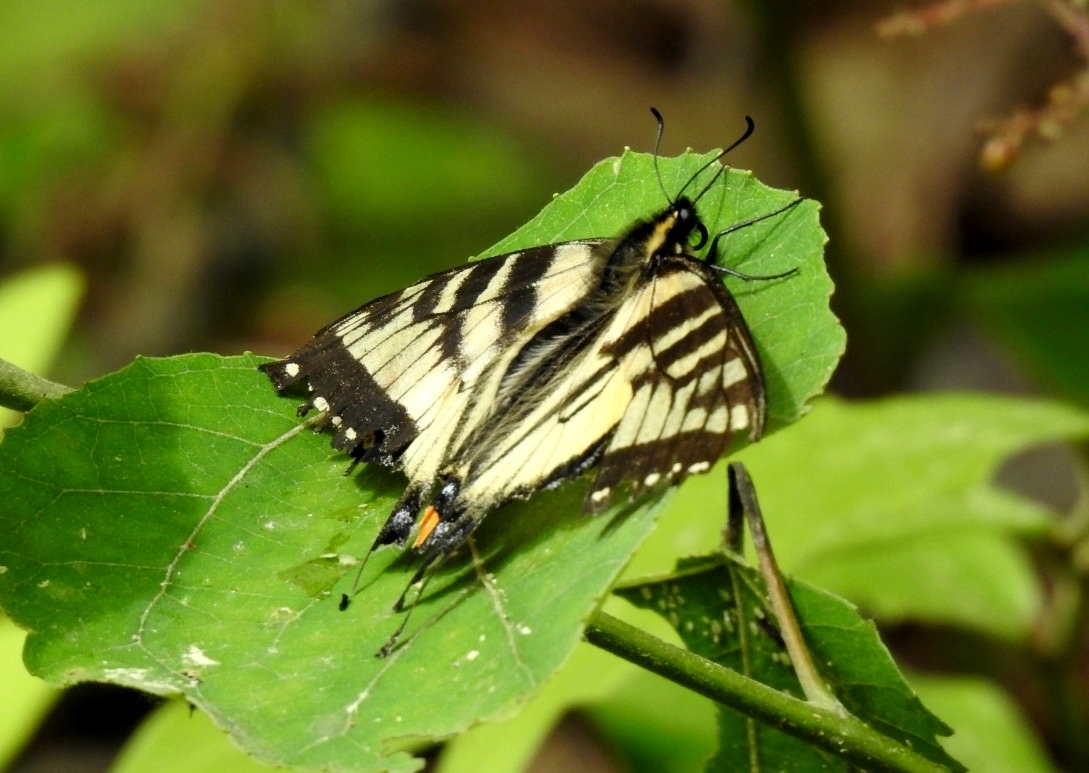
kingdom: Animalia
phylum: Arthropoda
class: Insecta
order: Lepidoptera
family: Papilionidae
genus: Papilio
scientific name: Papilio canadensis
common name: Canadian tiger swallowtail
